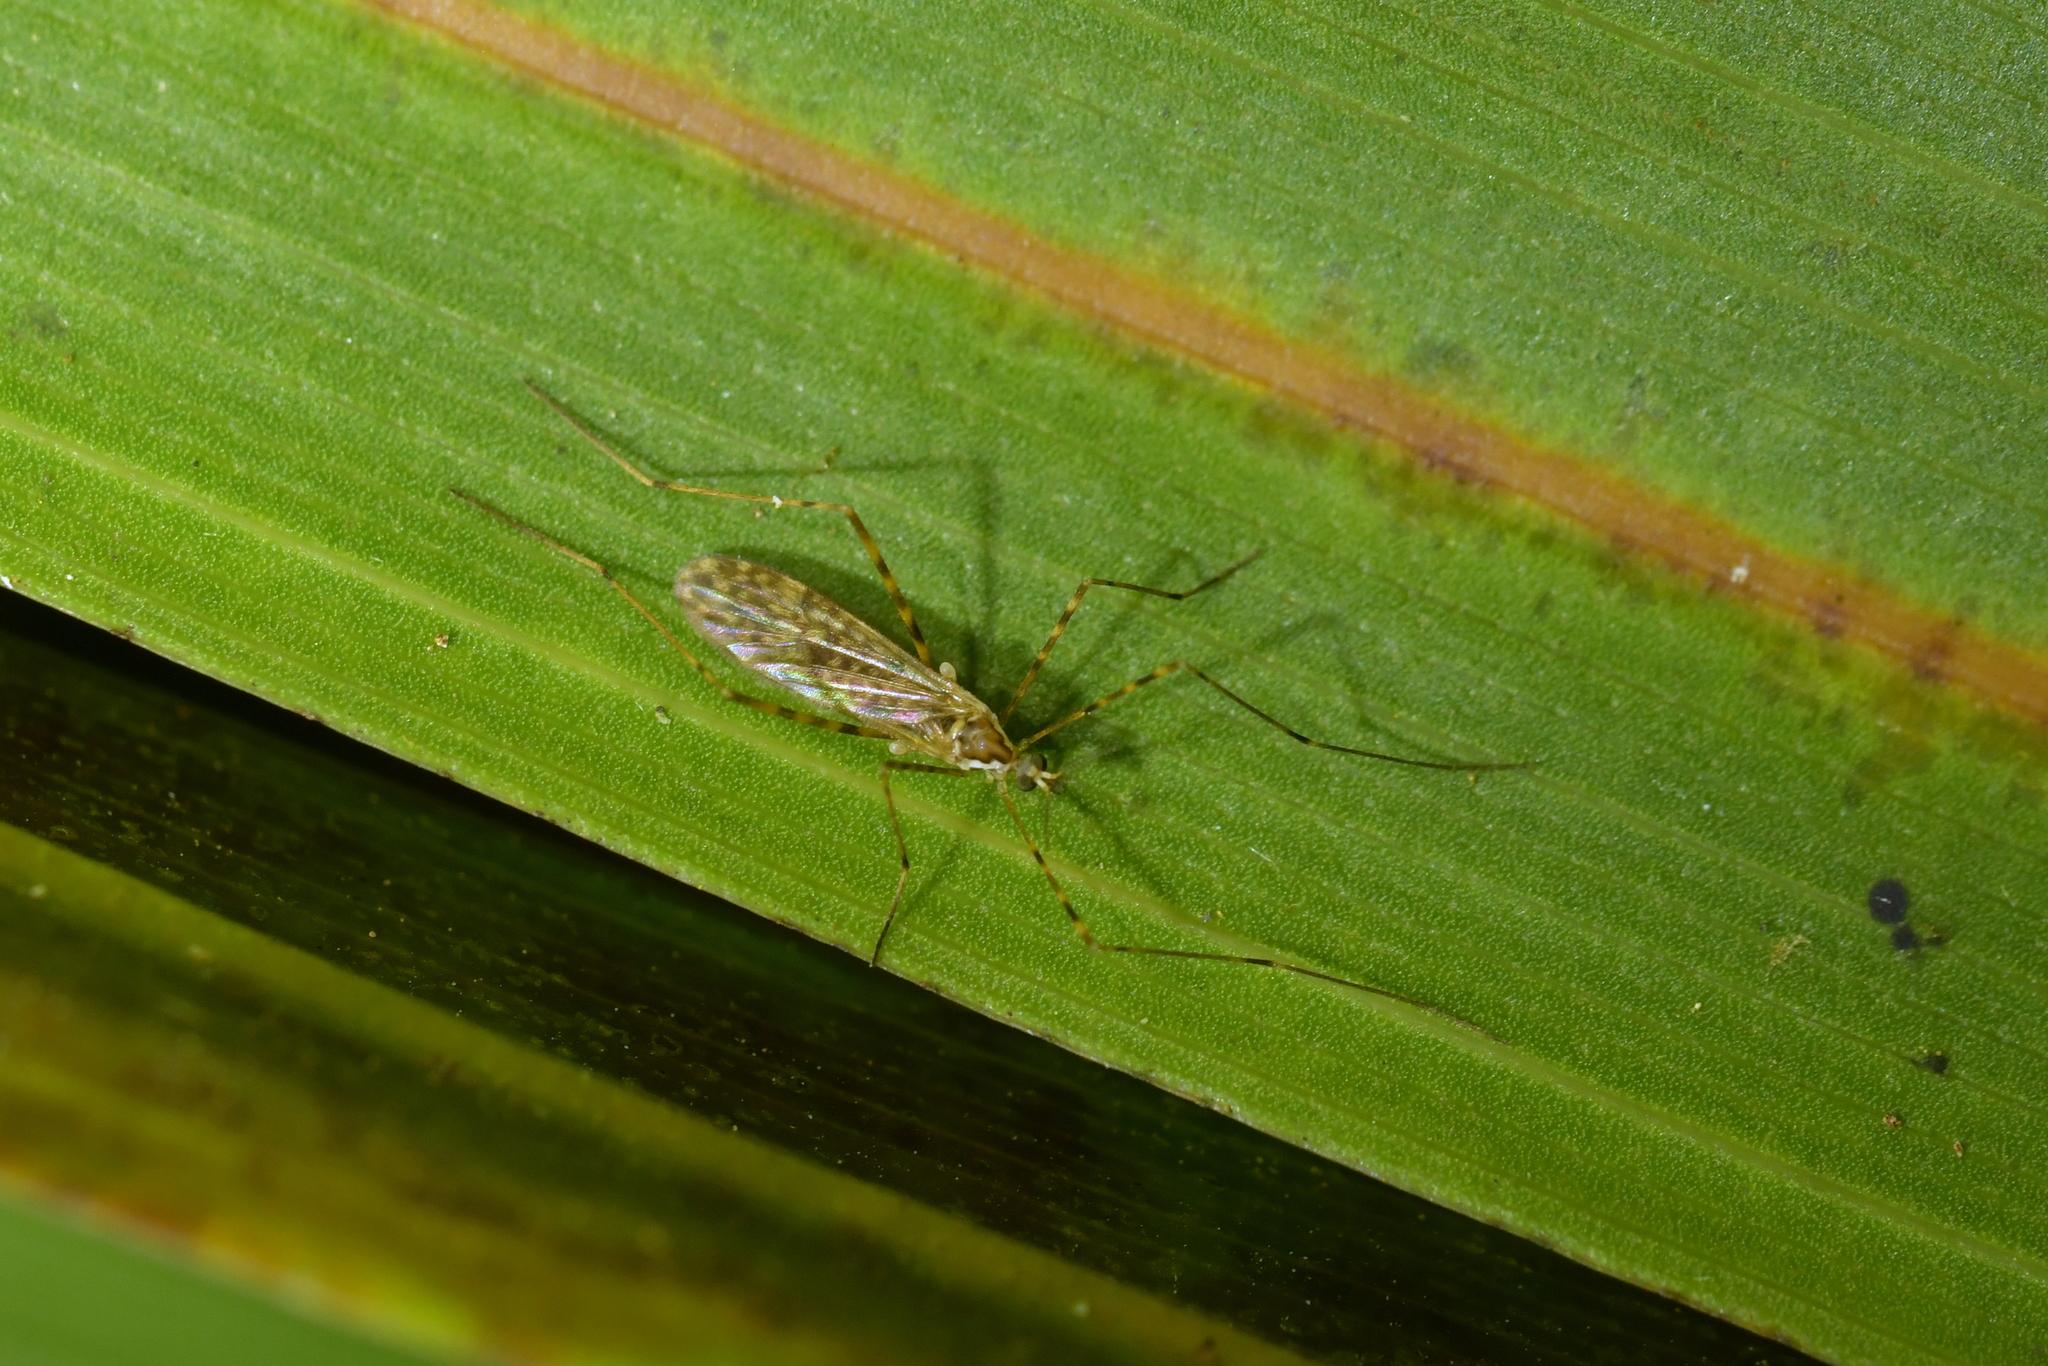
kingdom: Animalia
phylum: Arthropoda
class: Insecta
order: Diptera
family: Limoniidae
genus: Amphineurus
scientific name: Amphineurus hudsoni
